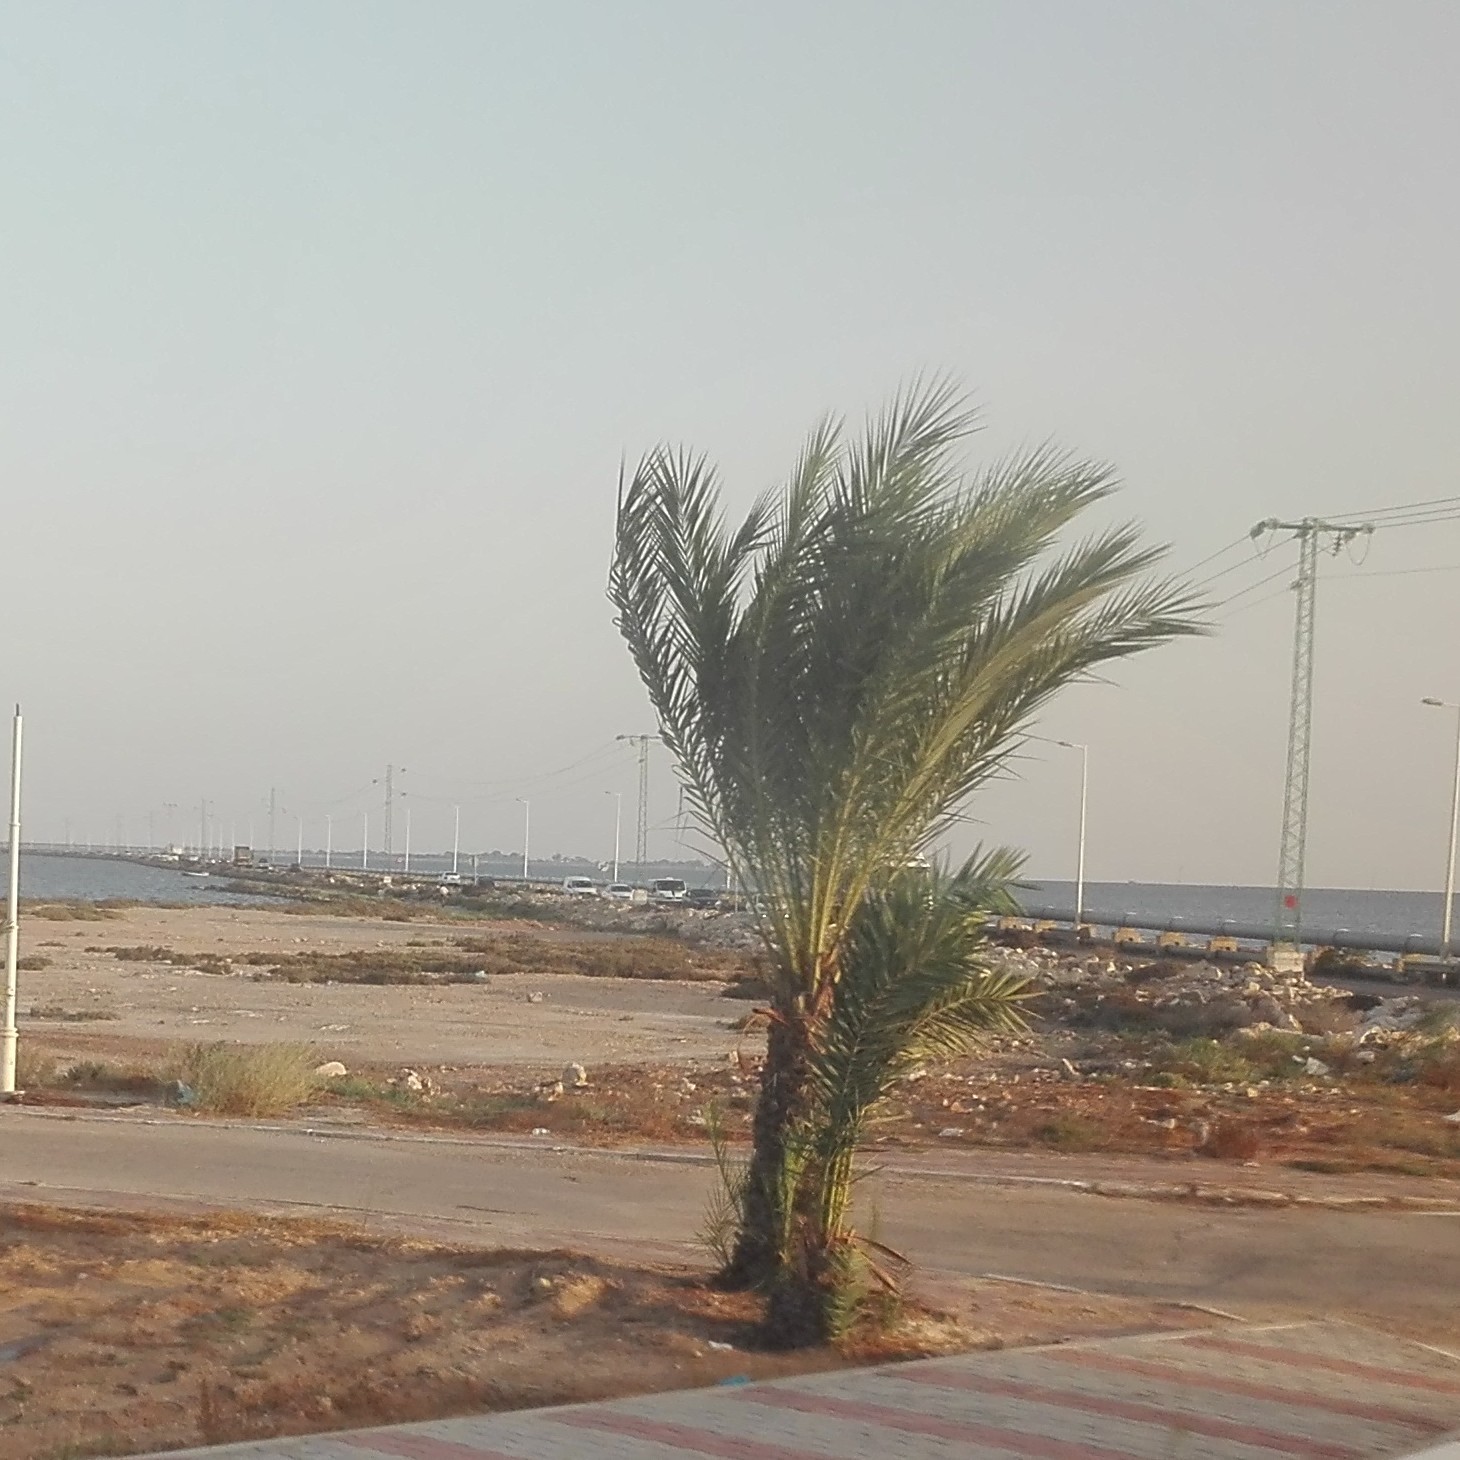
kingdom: Plantae
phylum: Tracheophyta
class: Liliopsida
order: Arecales
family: Arecaceae
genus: Phoenix
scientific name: Phoenix dactylifera
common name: Date palm
